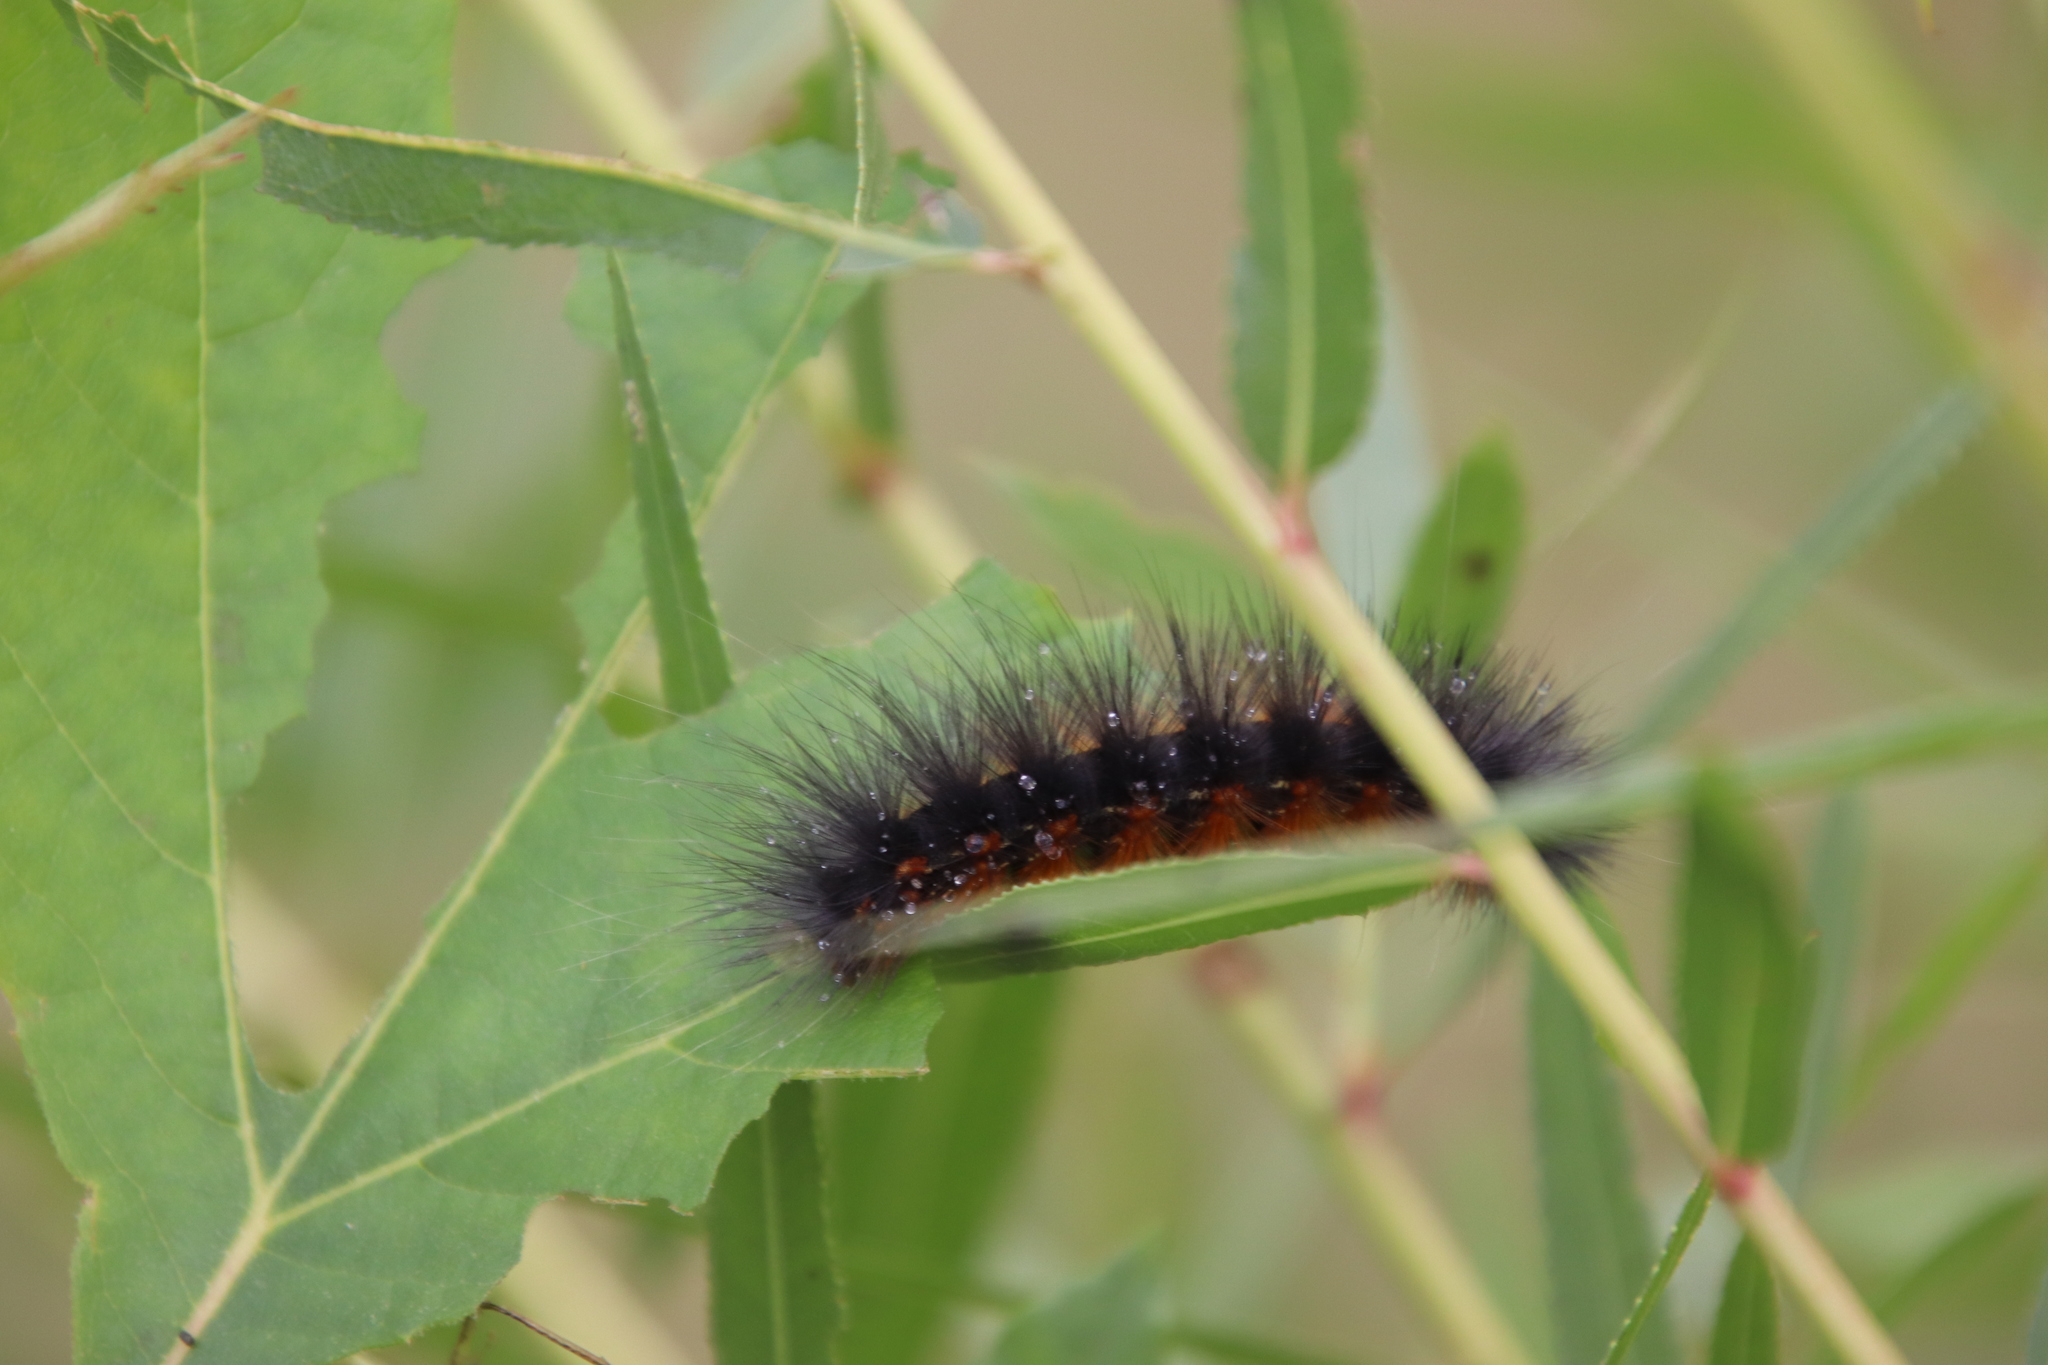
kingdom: Animalia
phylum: Arthropoda
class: Insecta
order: Lepidoptera
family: Erebidae
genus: Estigmene
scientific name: Estigmene acrea
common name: Salt marsh moth
